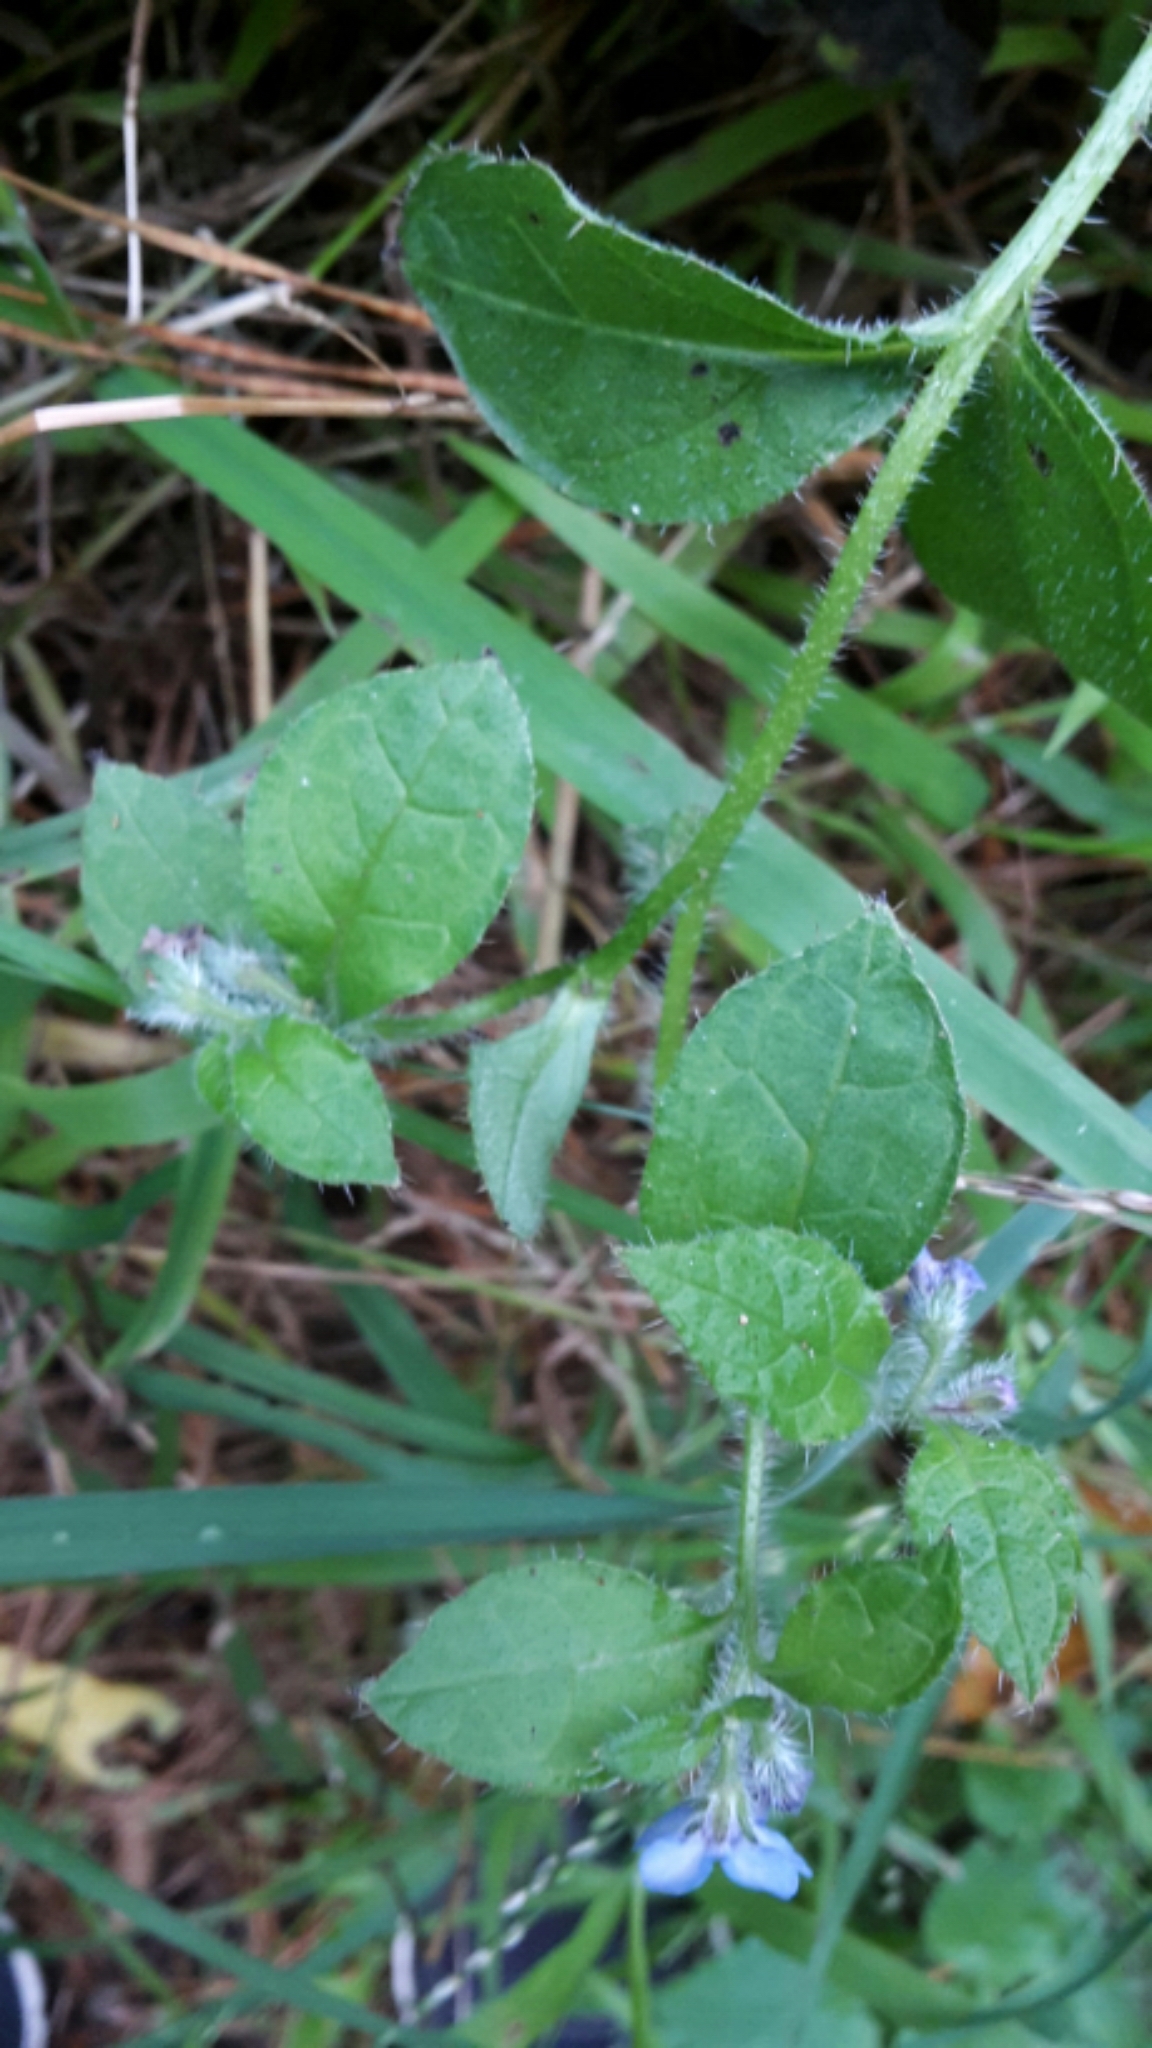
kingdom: Plantae
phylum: Tracheophyta
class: Magnoliopsida
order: Boraginales
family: Boraginaceae
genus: Pentaglottis
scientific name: Pentaglottis sempervirens
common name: Green alkanet
